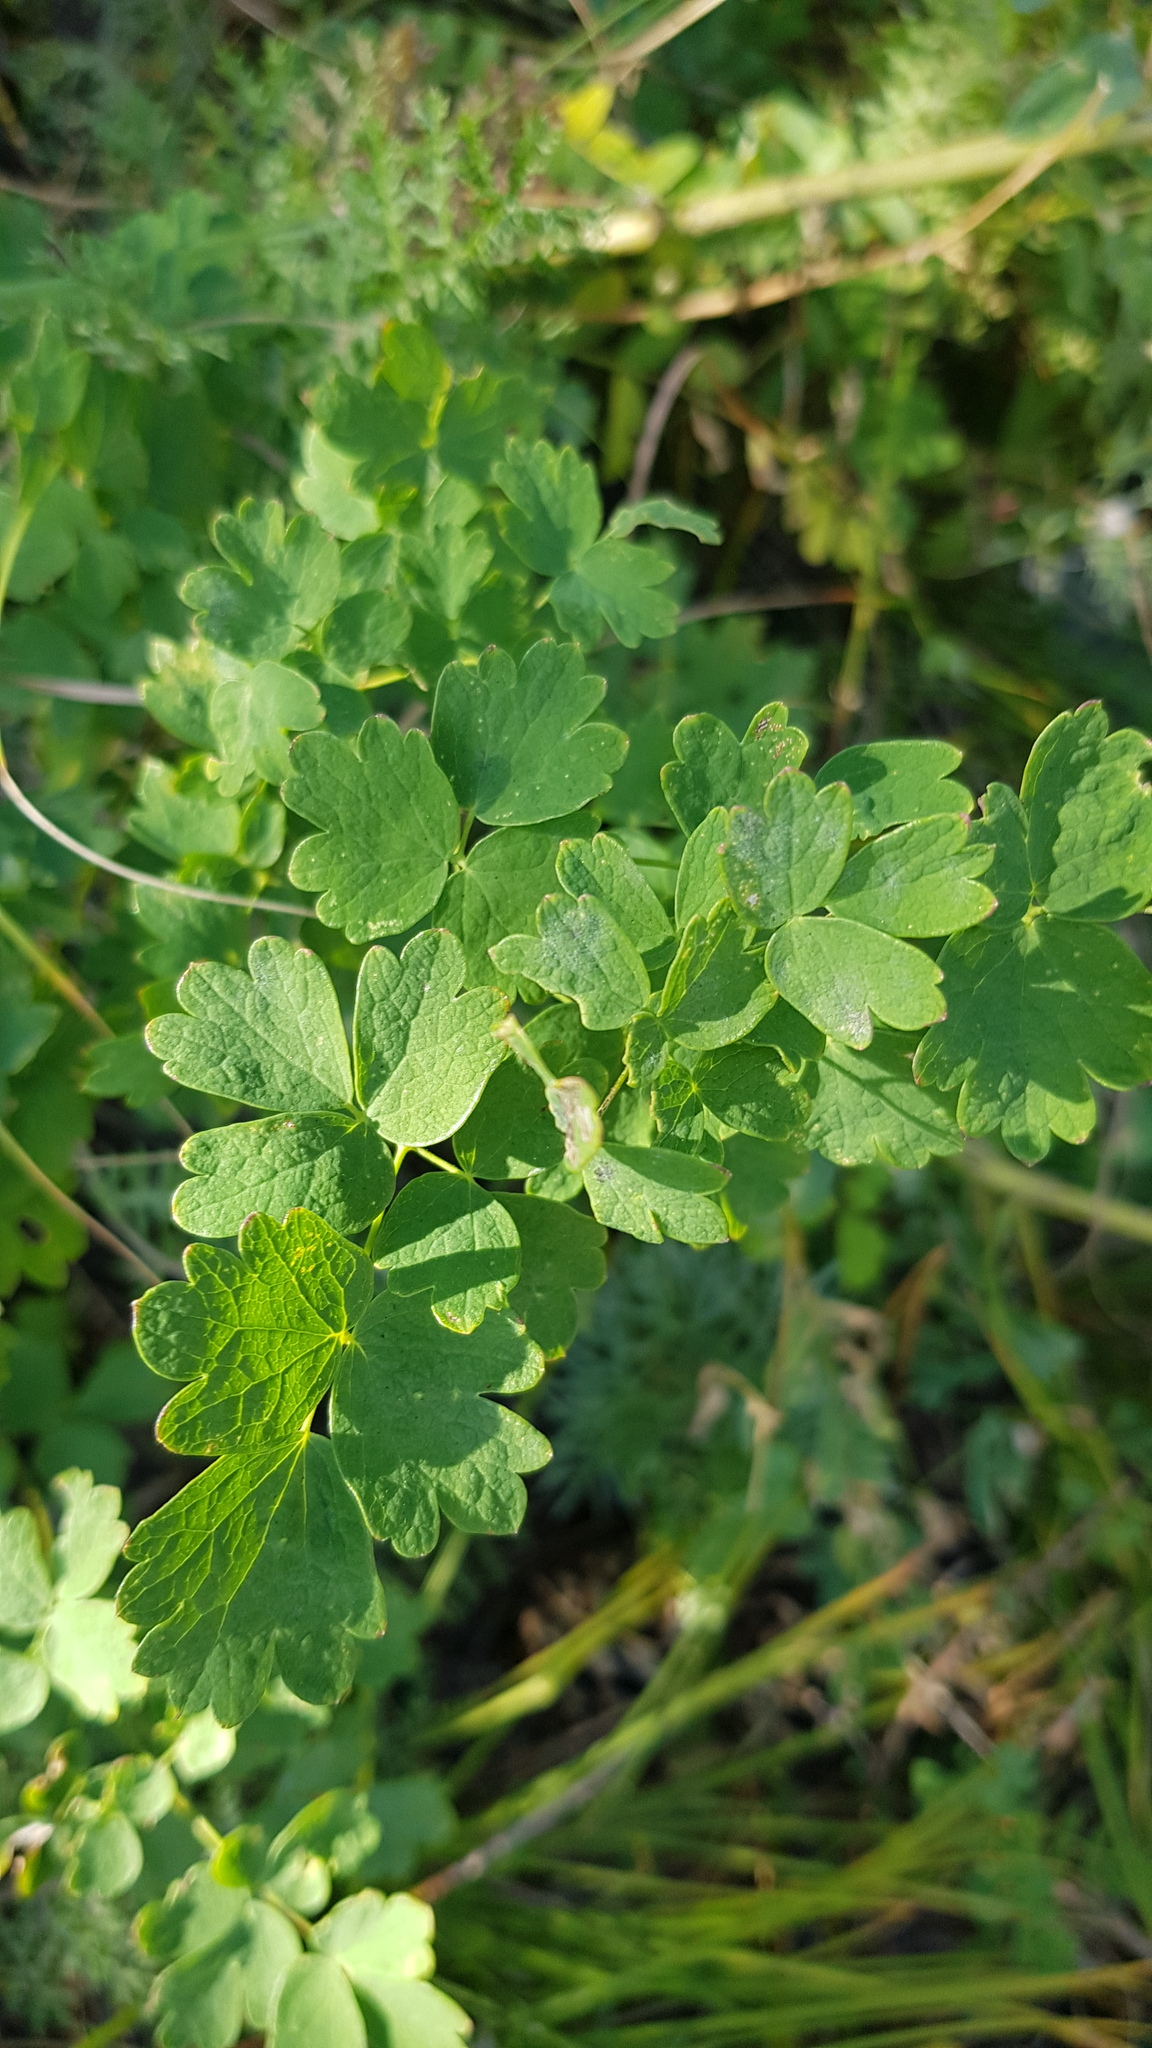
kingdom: Plantae
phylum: Tracheophyta
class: Magnoliopsida
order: Ranunculales
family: Ranunculaceae
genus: Thalictrum
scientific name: Thalictrum minus
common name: Lesser meadow-rue
